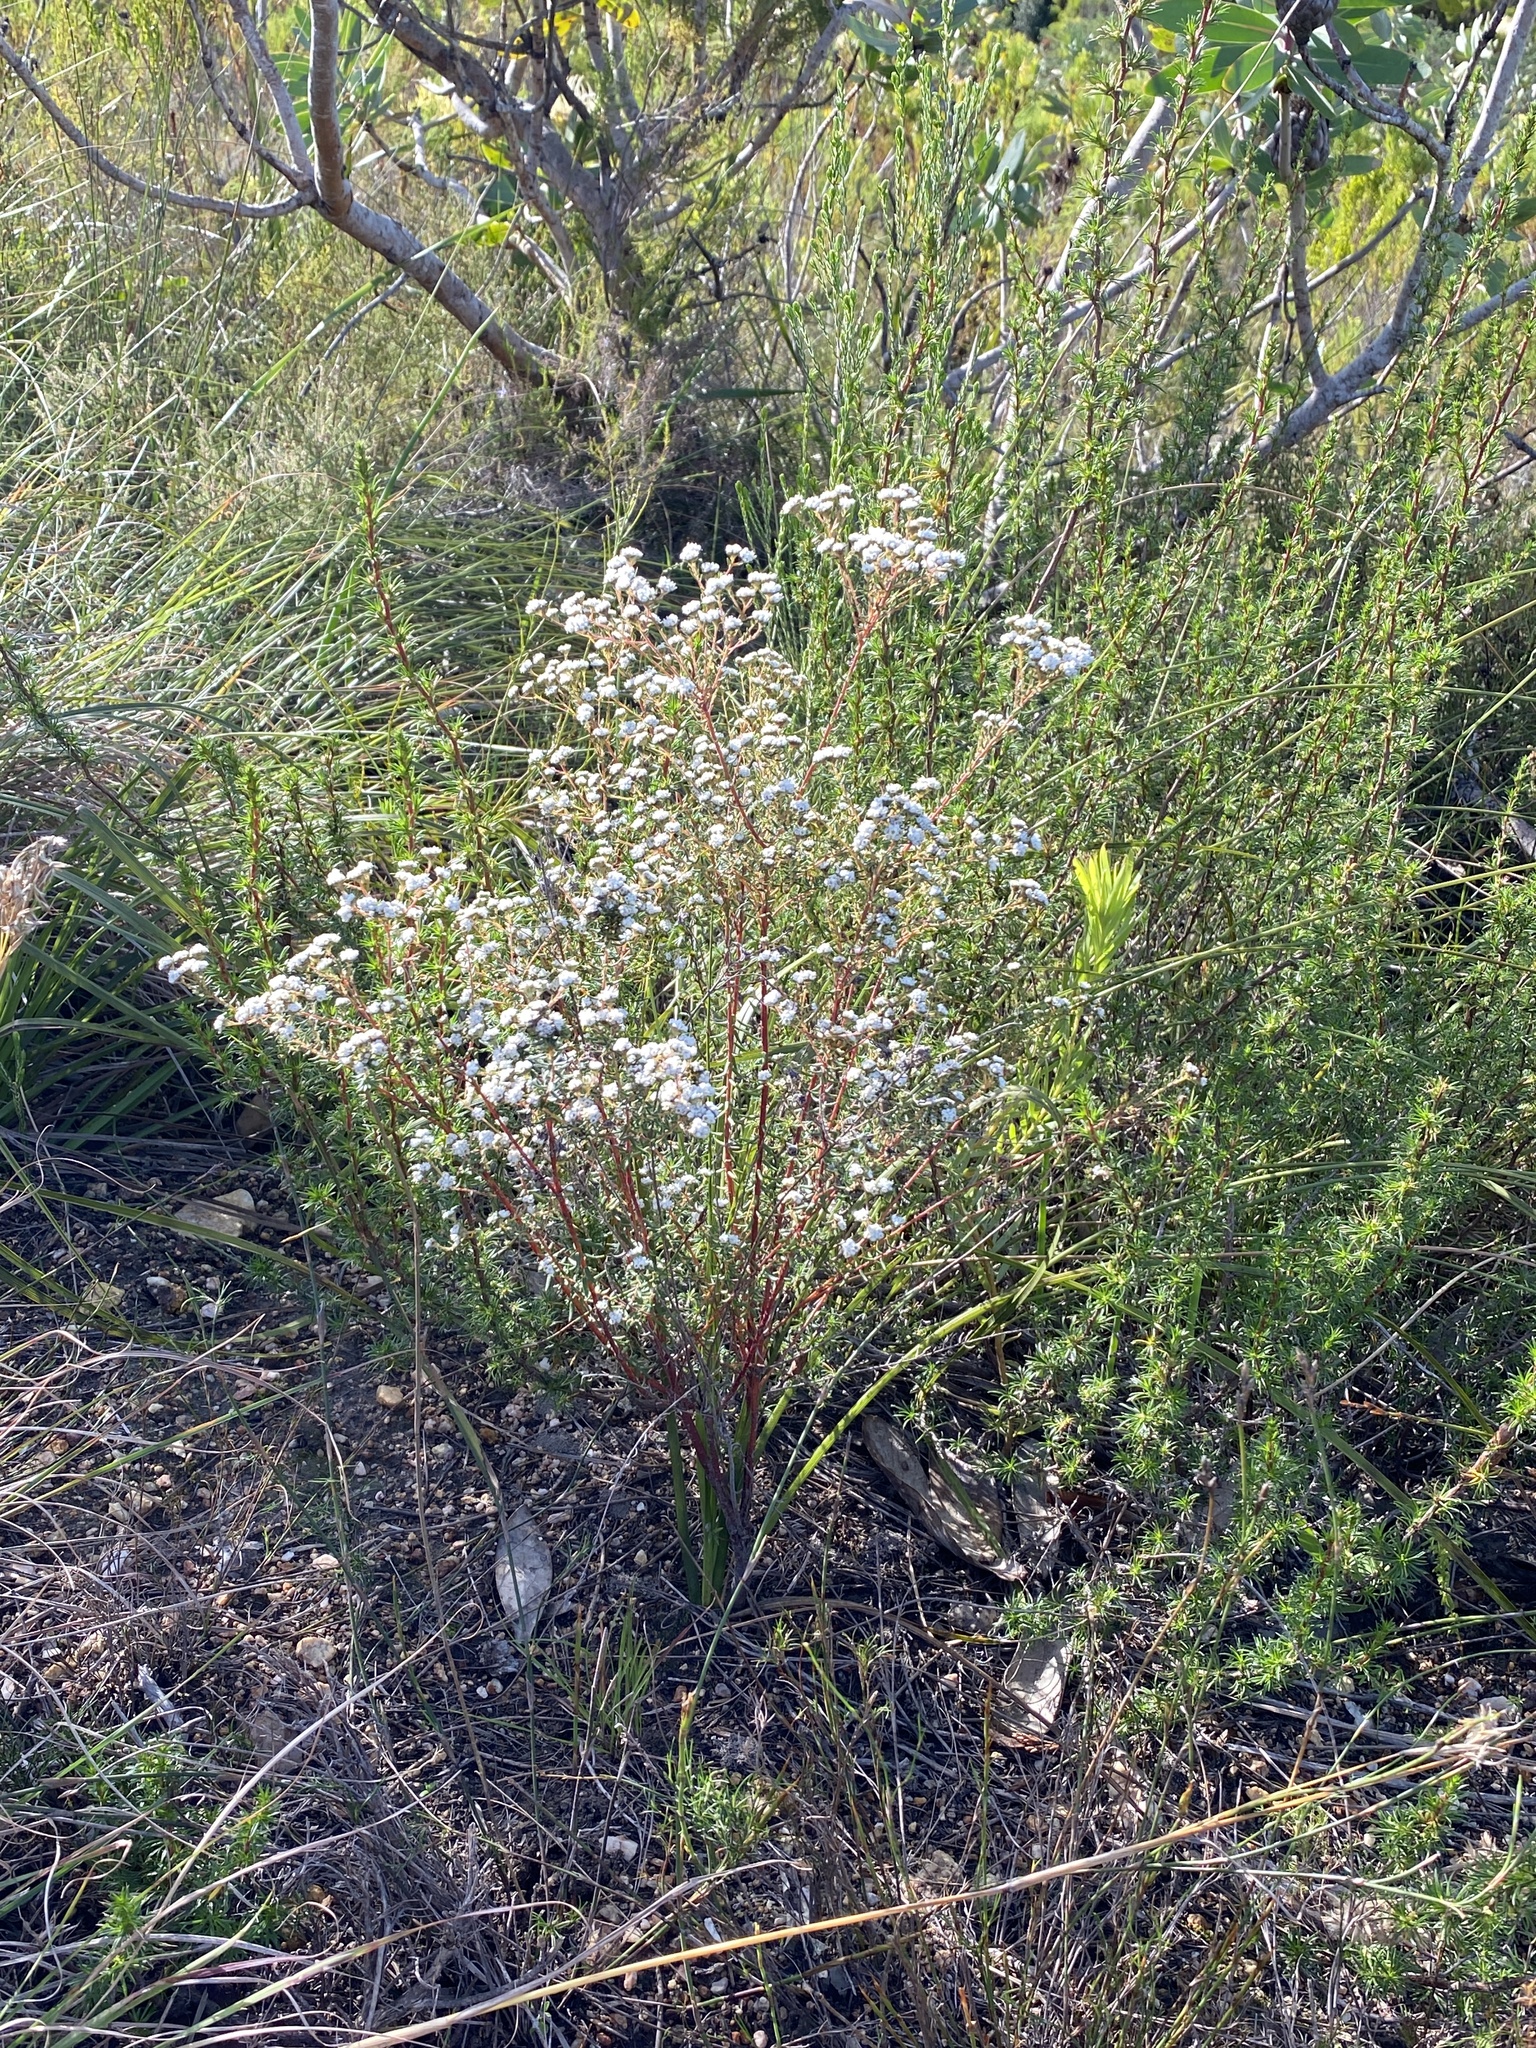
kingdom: Plantae
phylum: Tracheophyta
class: Magnoliopsida
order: Rosales
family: Rhamnaceae
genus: Phylica
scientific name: Phylica virgata
